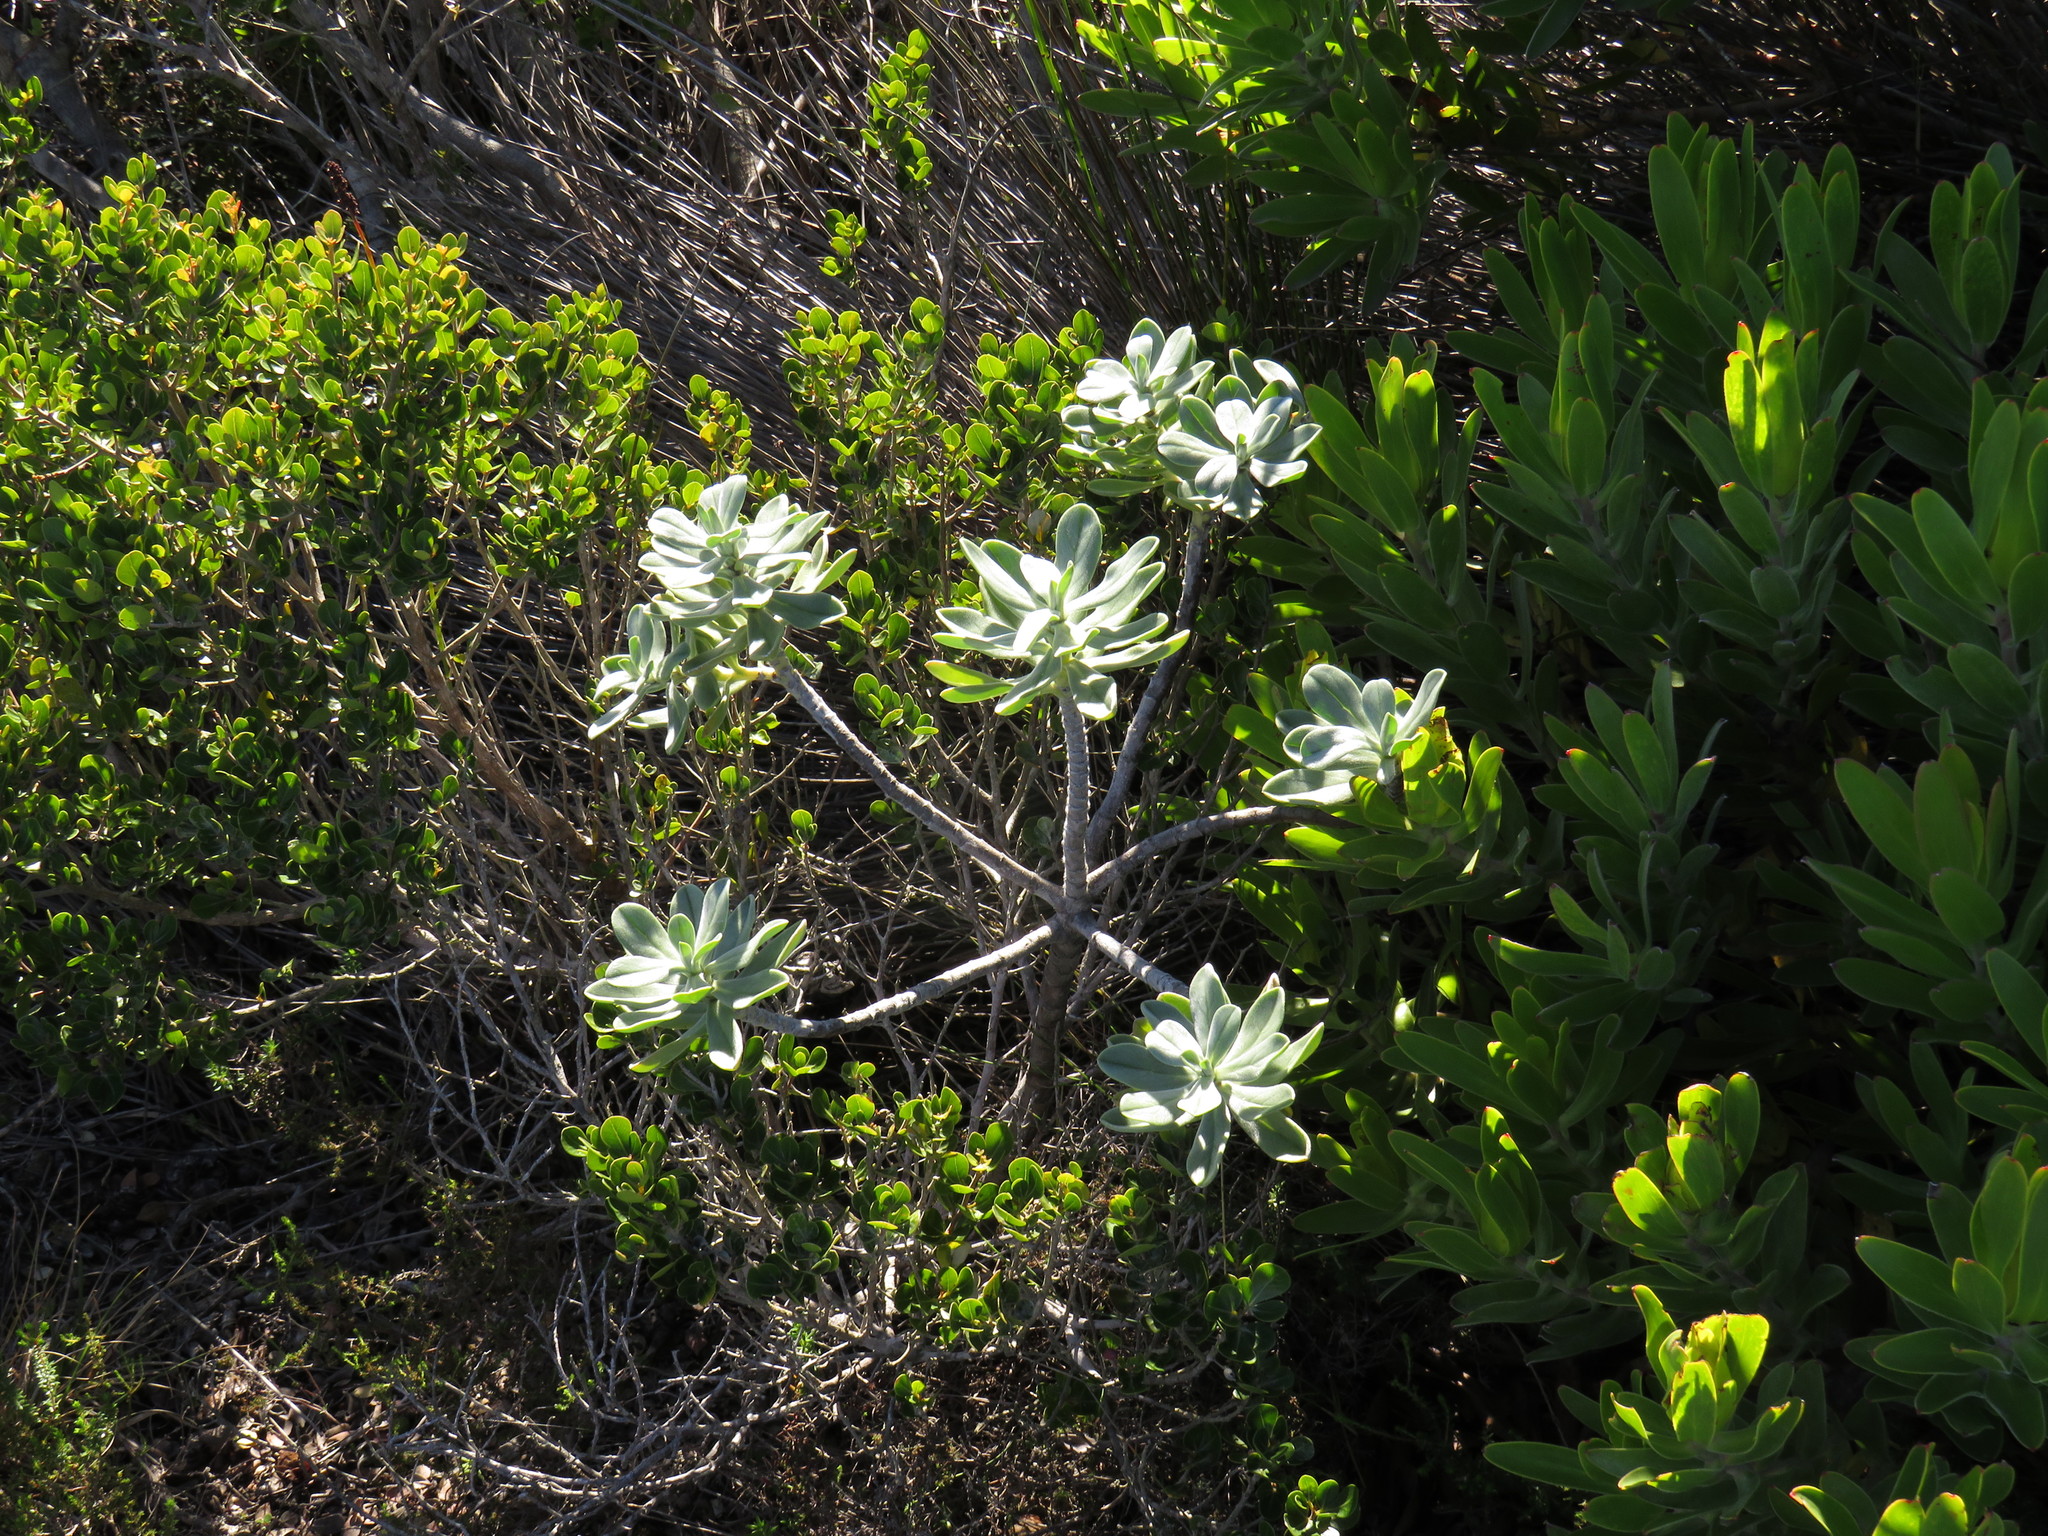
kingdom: Plantae
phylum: Tracheophyta
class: Magnoliopsida
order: Boraginales
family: Boraginaceae
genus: Lobostemon
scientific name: Lobostemon montanus
